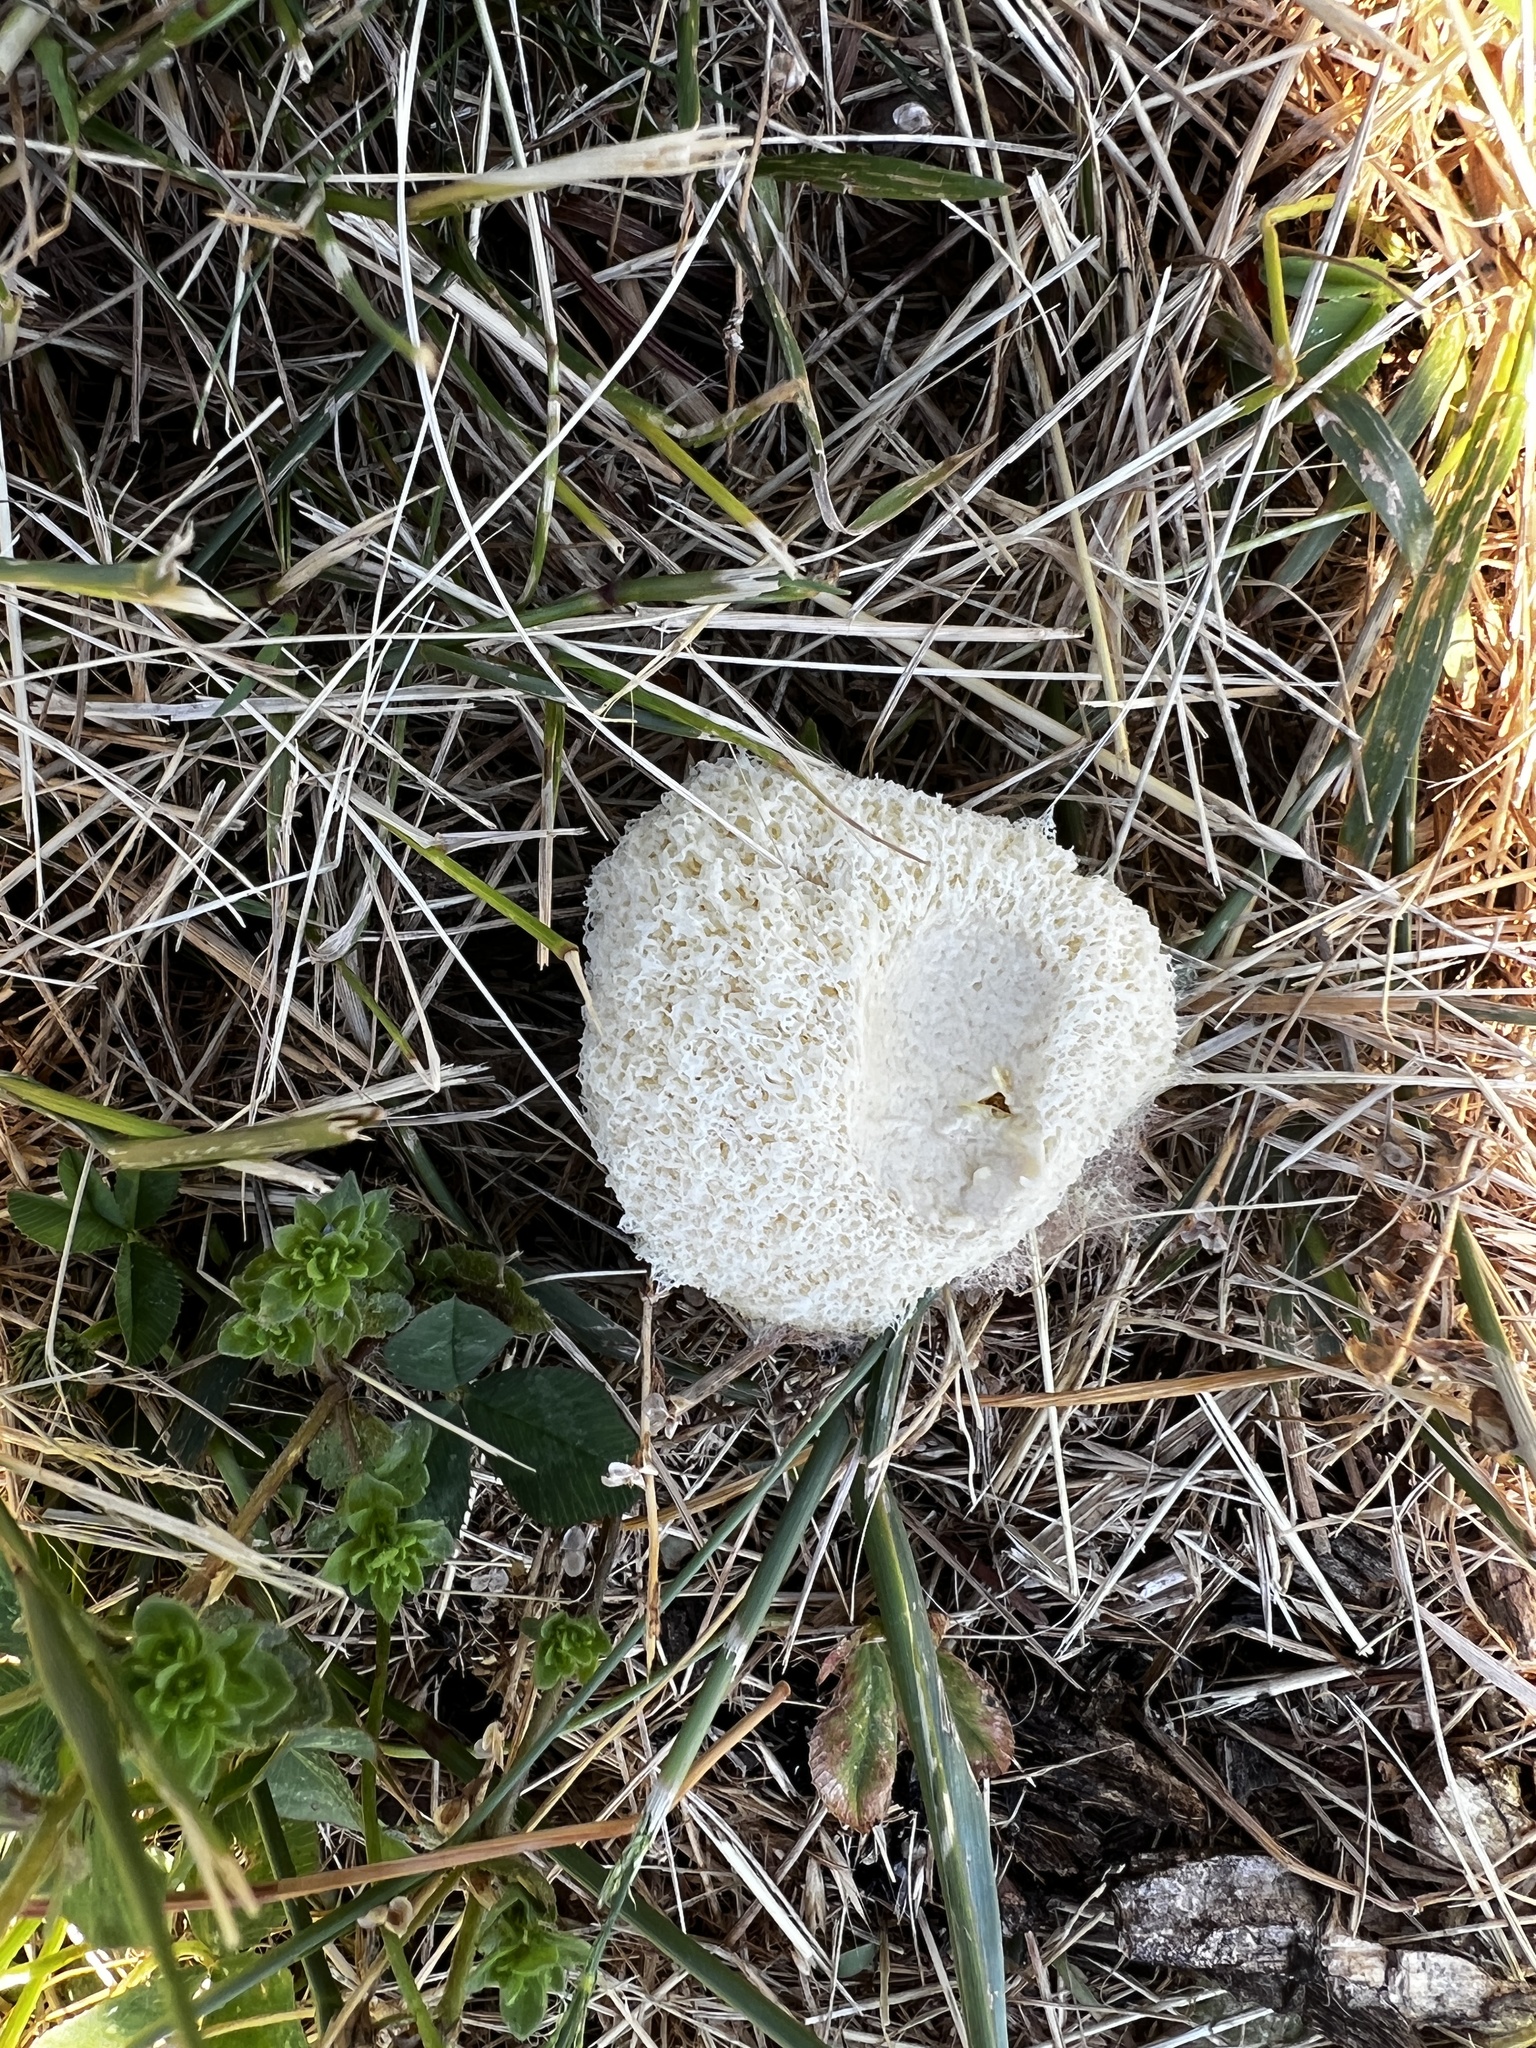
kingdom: Protozoa
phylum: Mycetozoa
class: Myxomycetes
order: Physarales
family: Physaraceae
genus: Didymium
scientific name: Didymium
